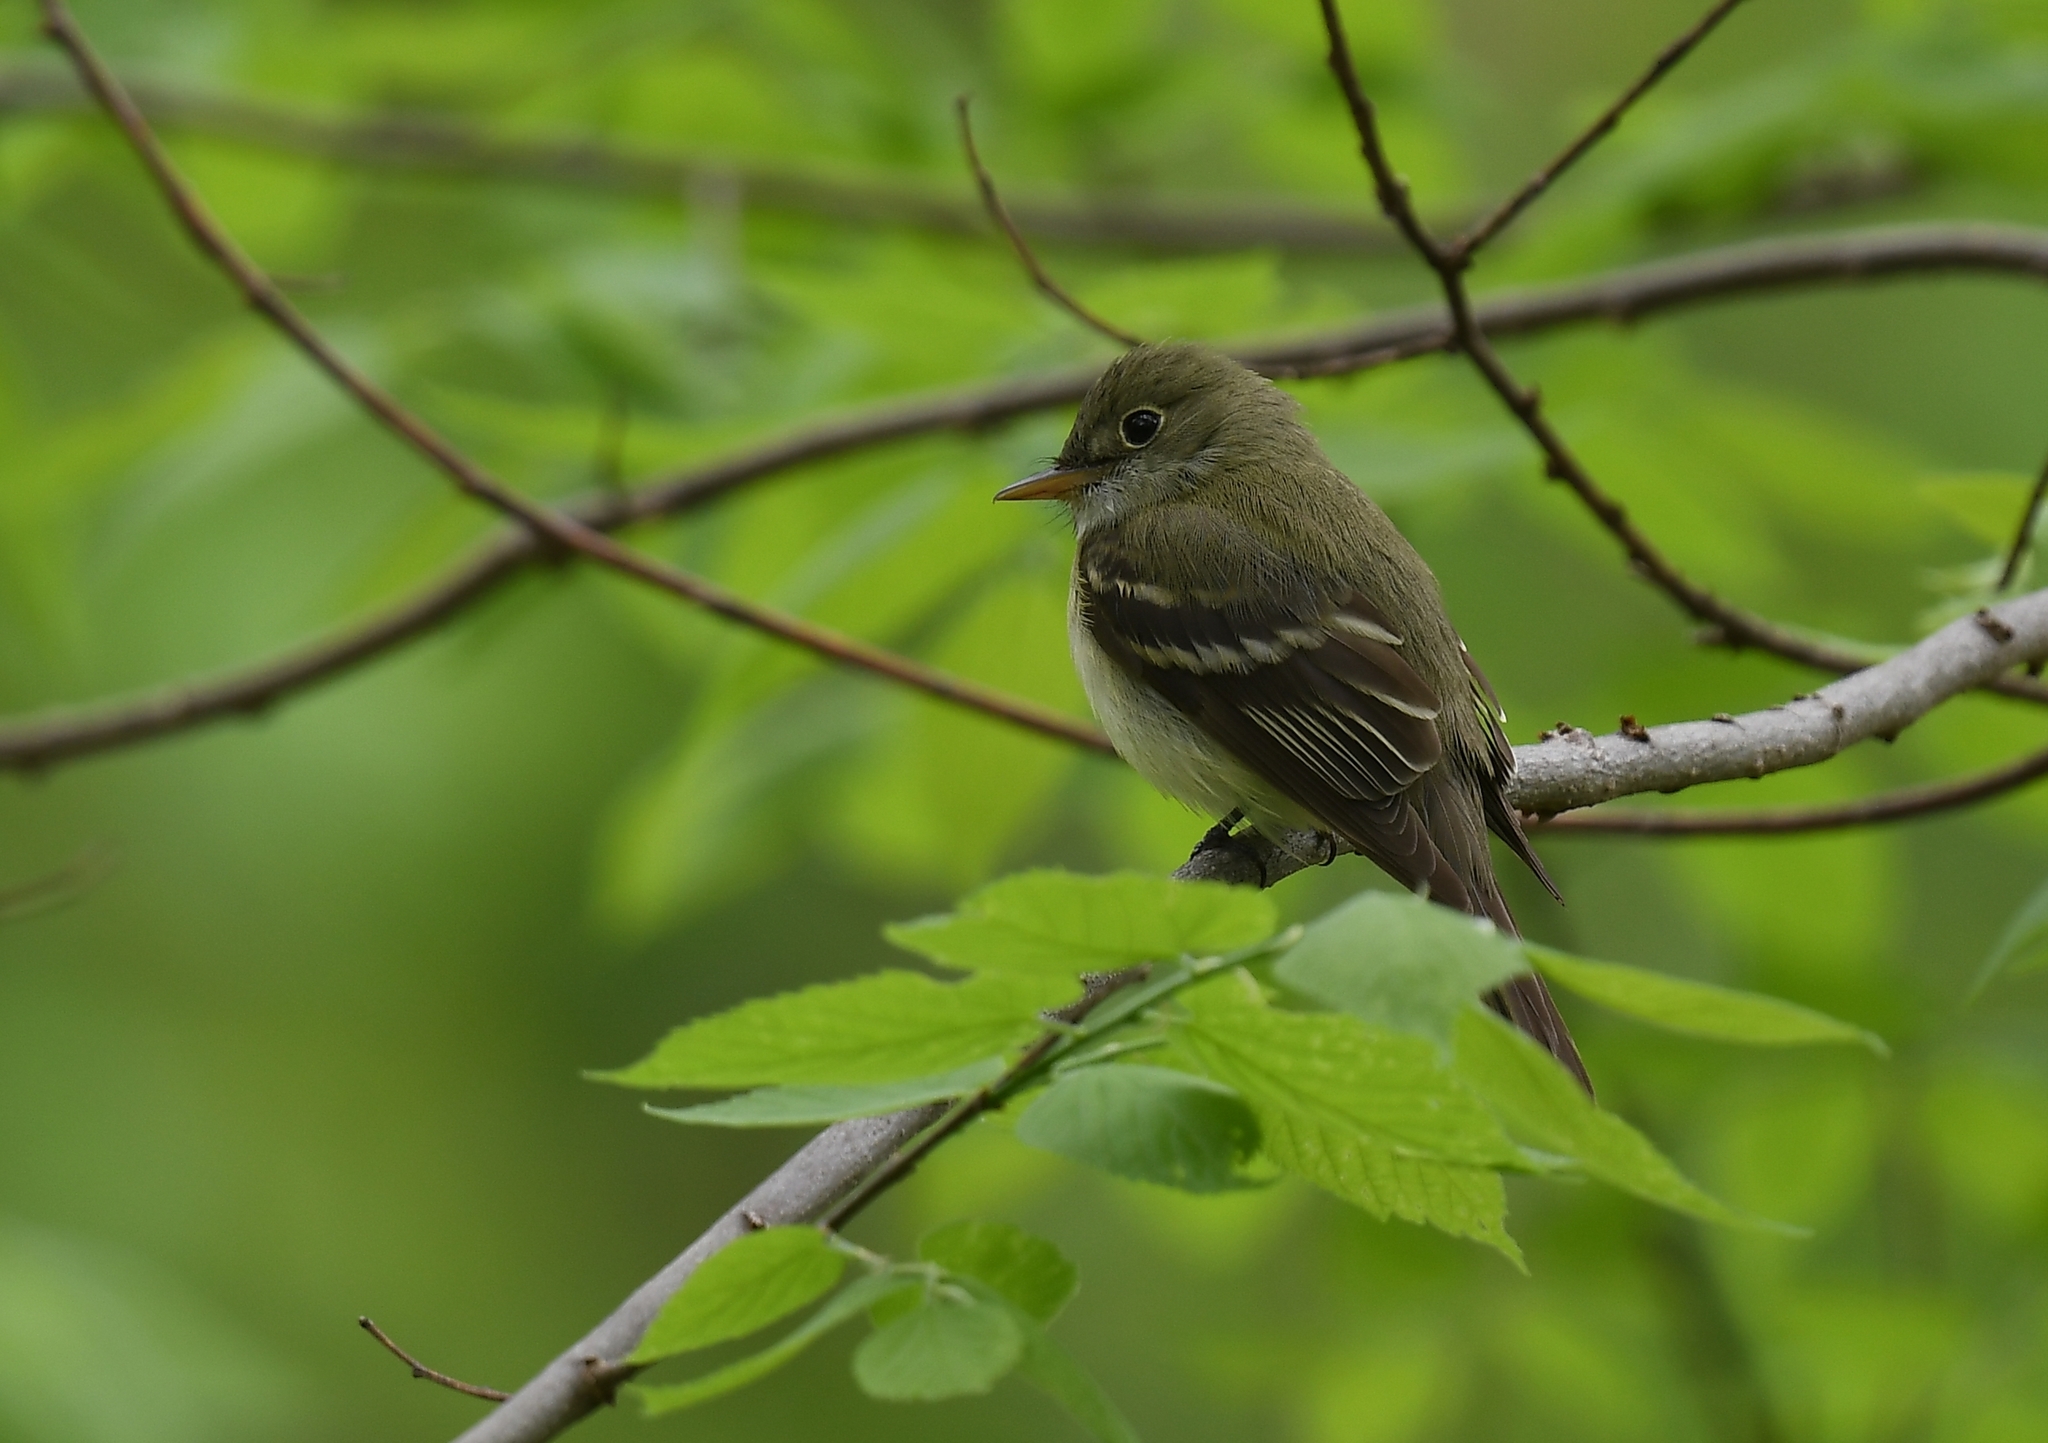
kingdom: Animalia
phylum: Chordata
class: Aves
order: Passeriformes
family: Tyrannidae
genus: Empidonax
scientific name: Empidonax virescens
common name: Acadian flycatcher
